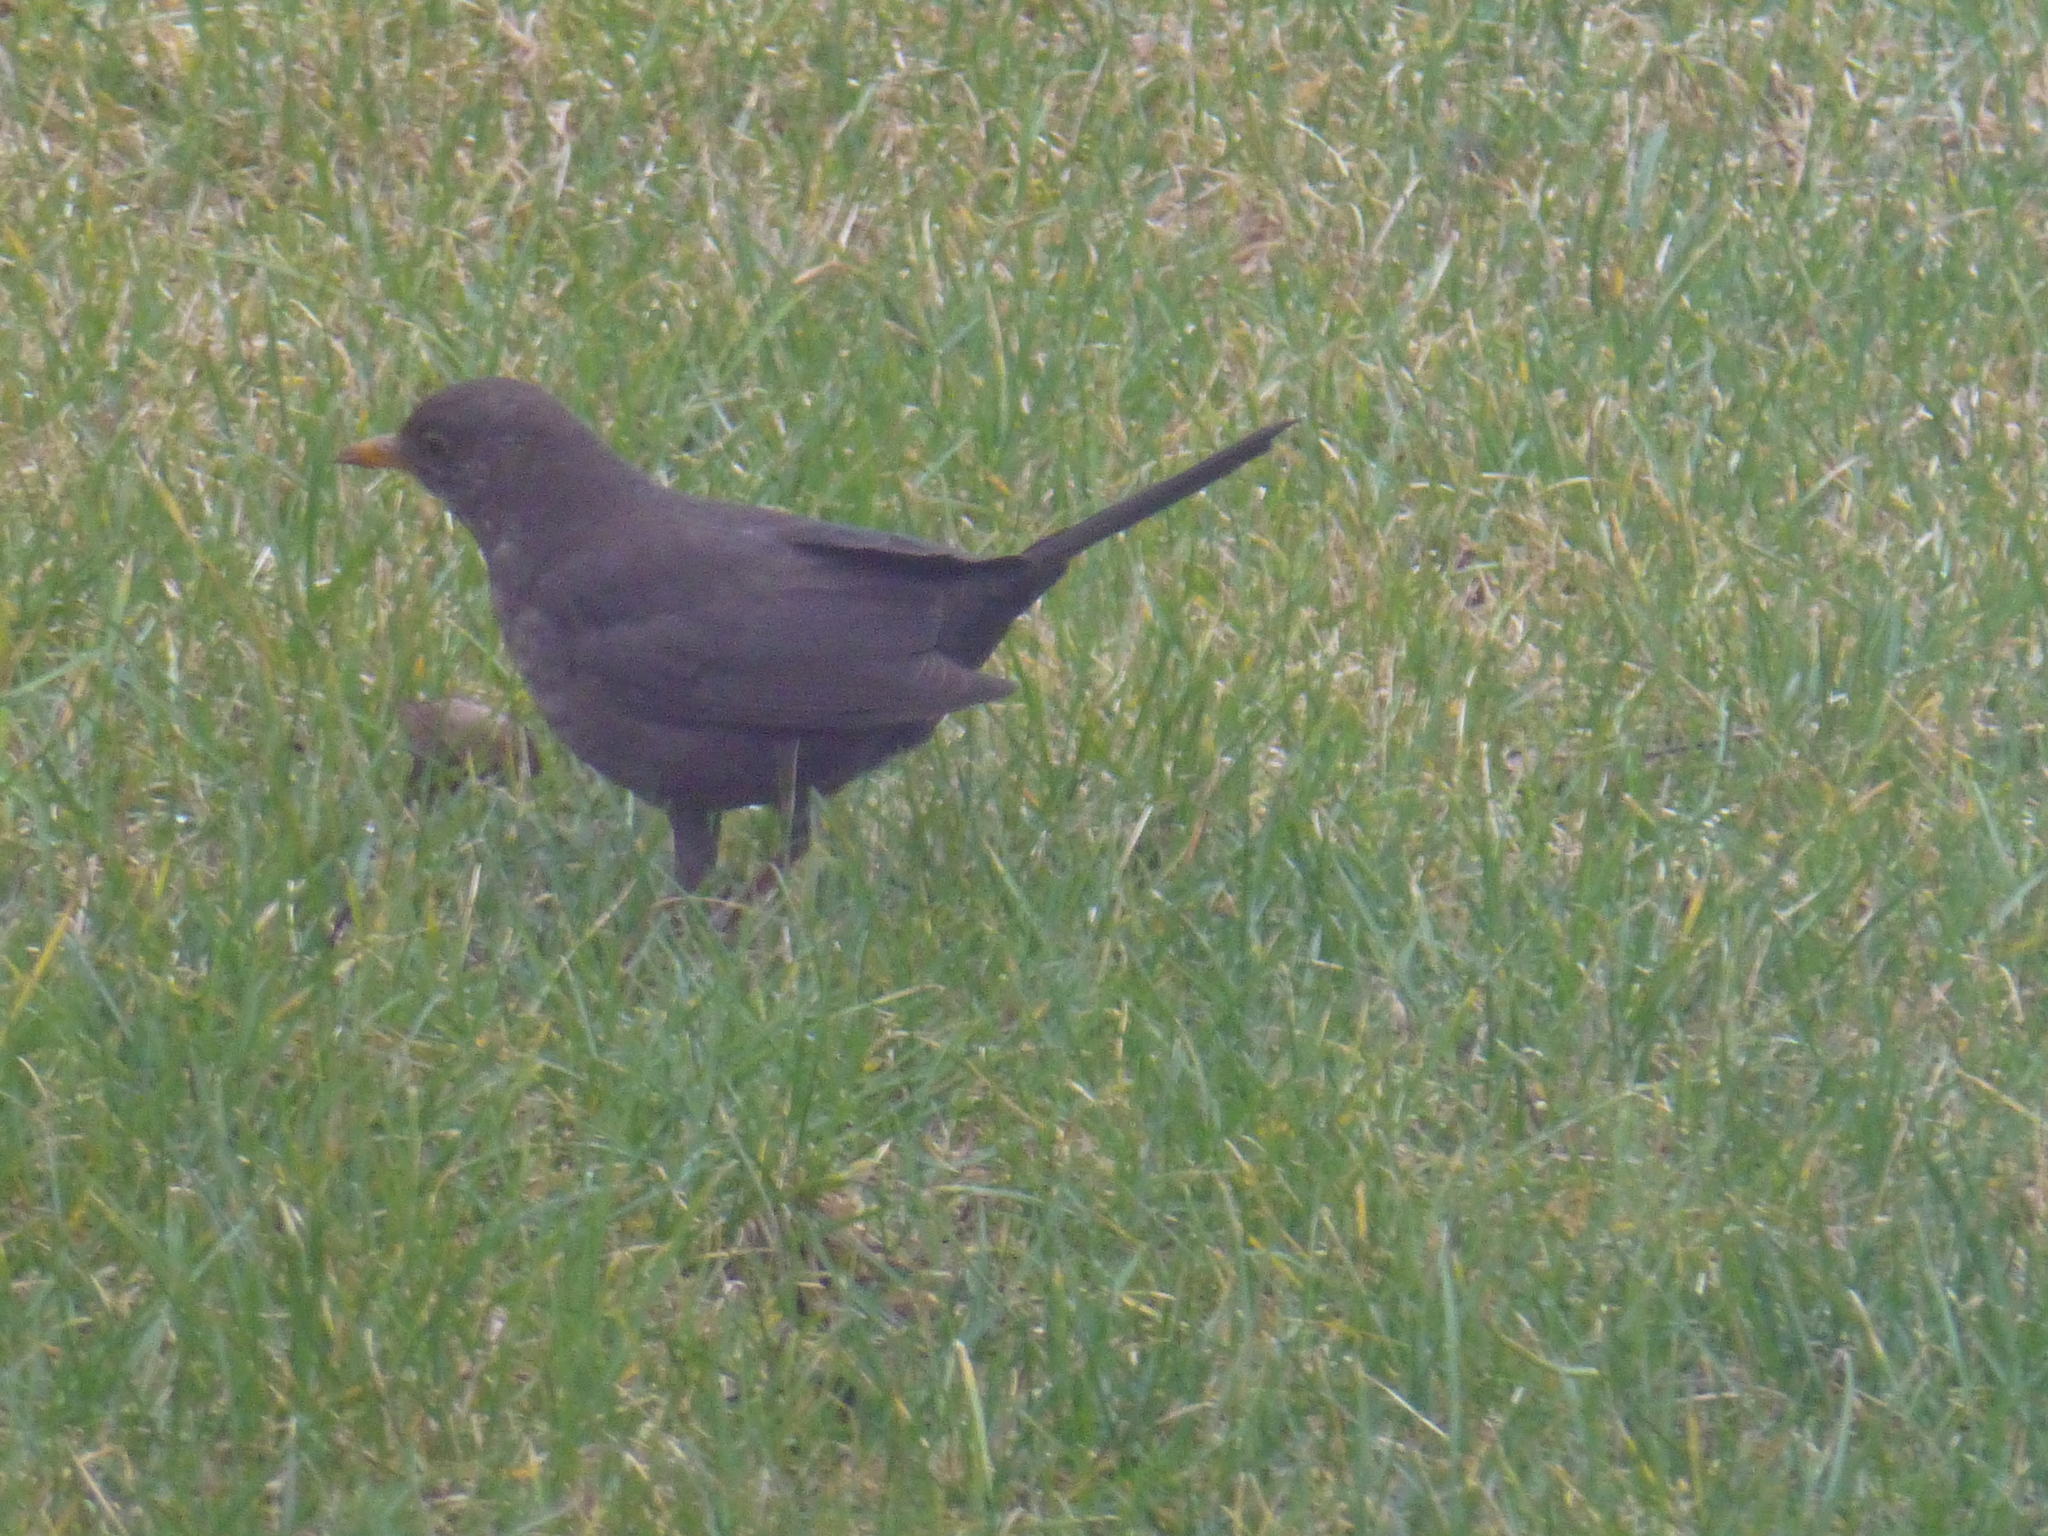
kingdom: Animalia
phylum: Chordata
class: Aves
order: Passeriformes
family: Turdidae
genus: Turdus
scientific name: Turdus merula
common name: Common blackbird
